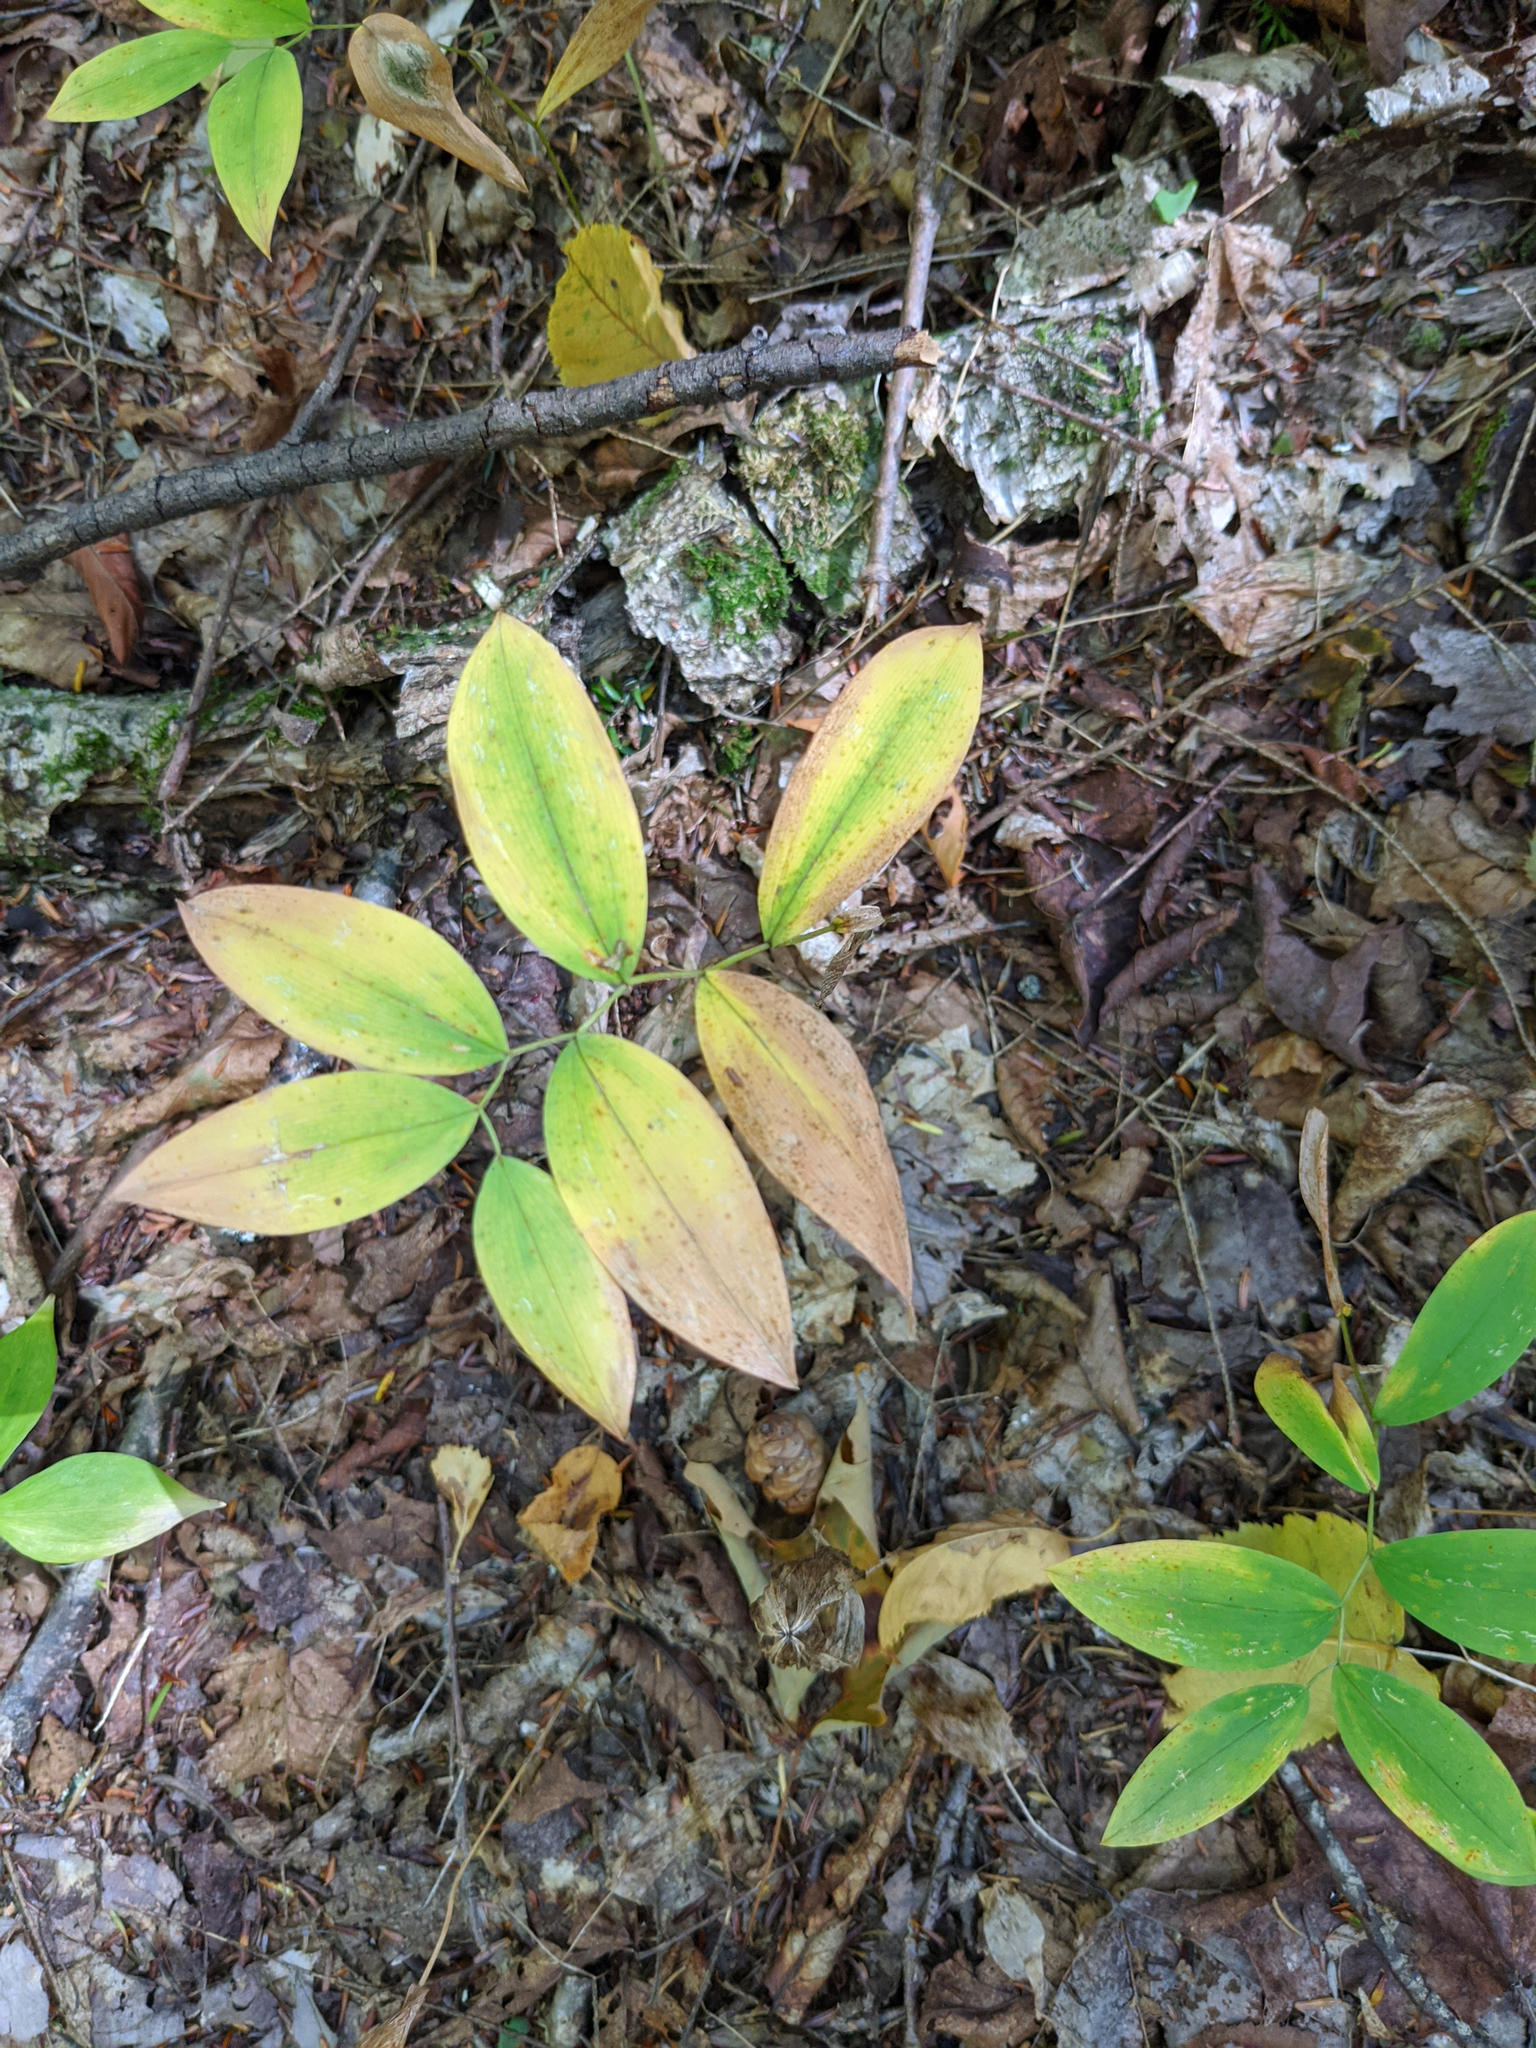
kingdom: Plantae
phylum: Tracheophyta
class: Liliopsida
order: Liliales
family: Colchicaceae
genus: Uvularia
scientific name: Uvularia sessilifolia
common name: Straw-lily
